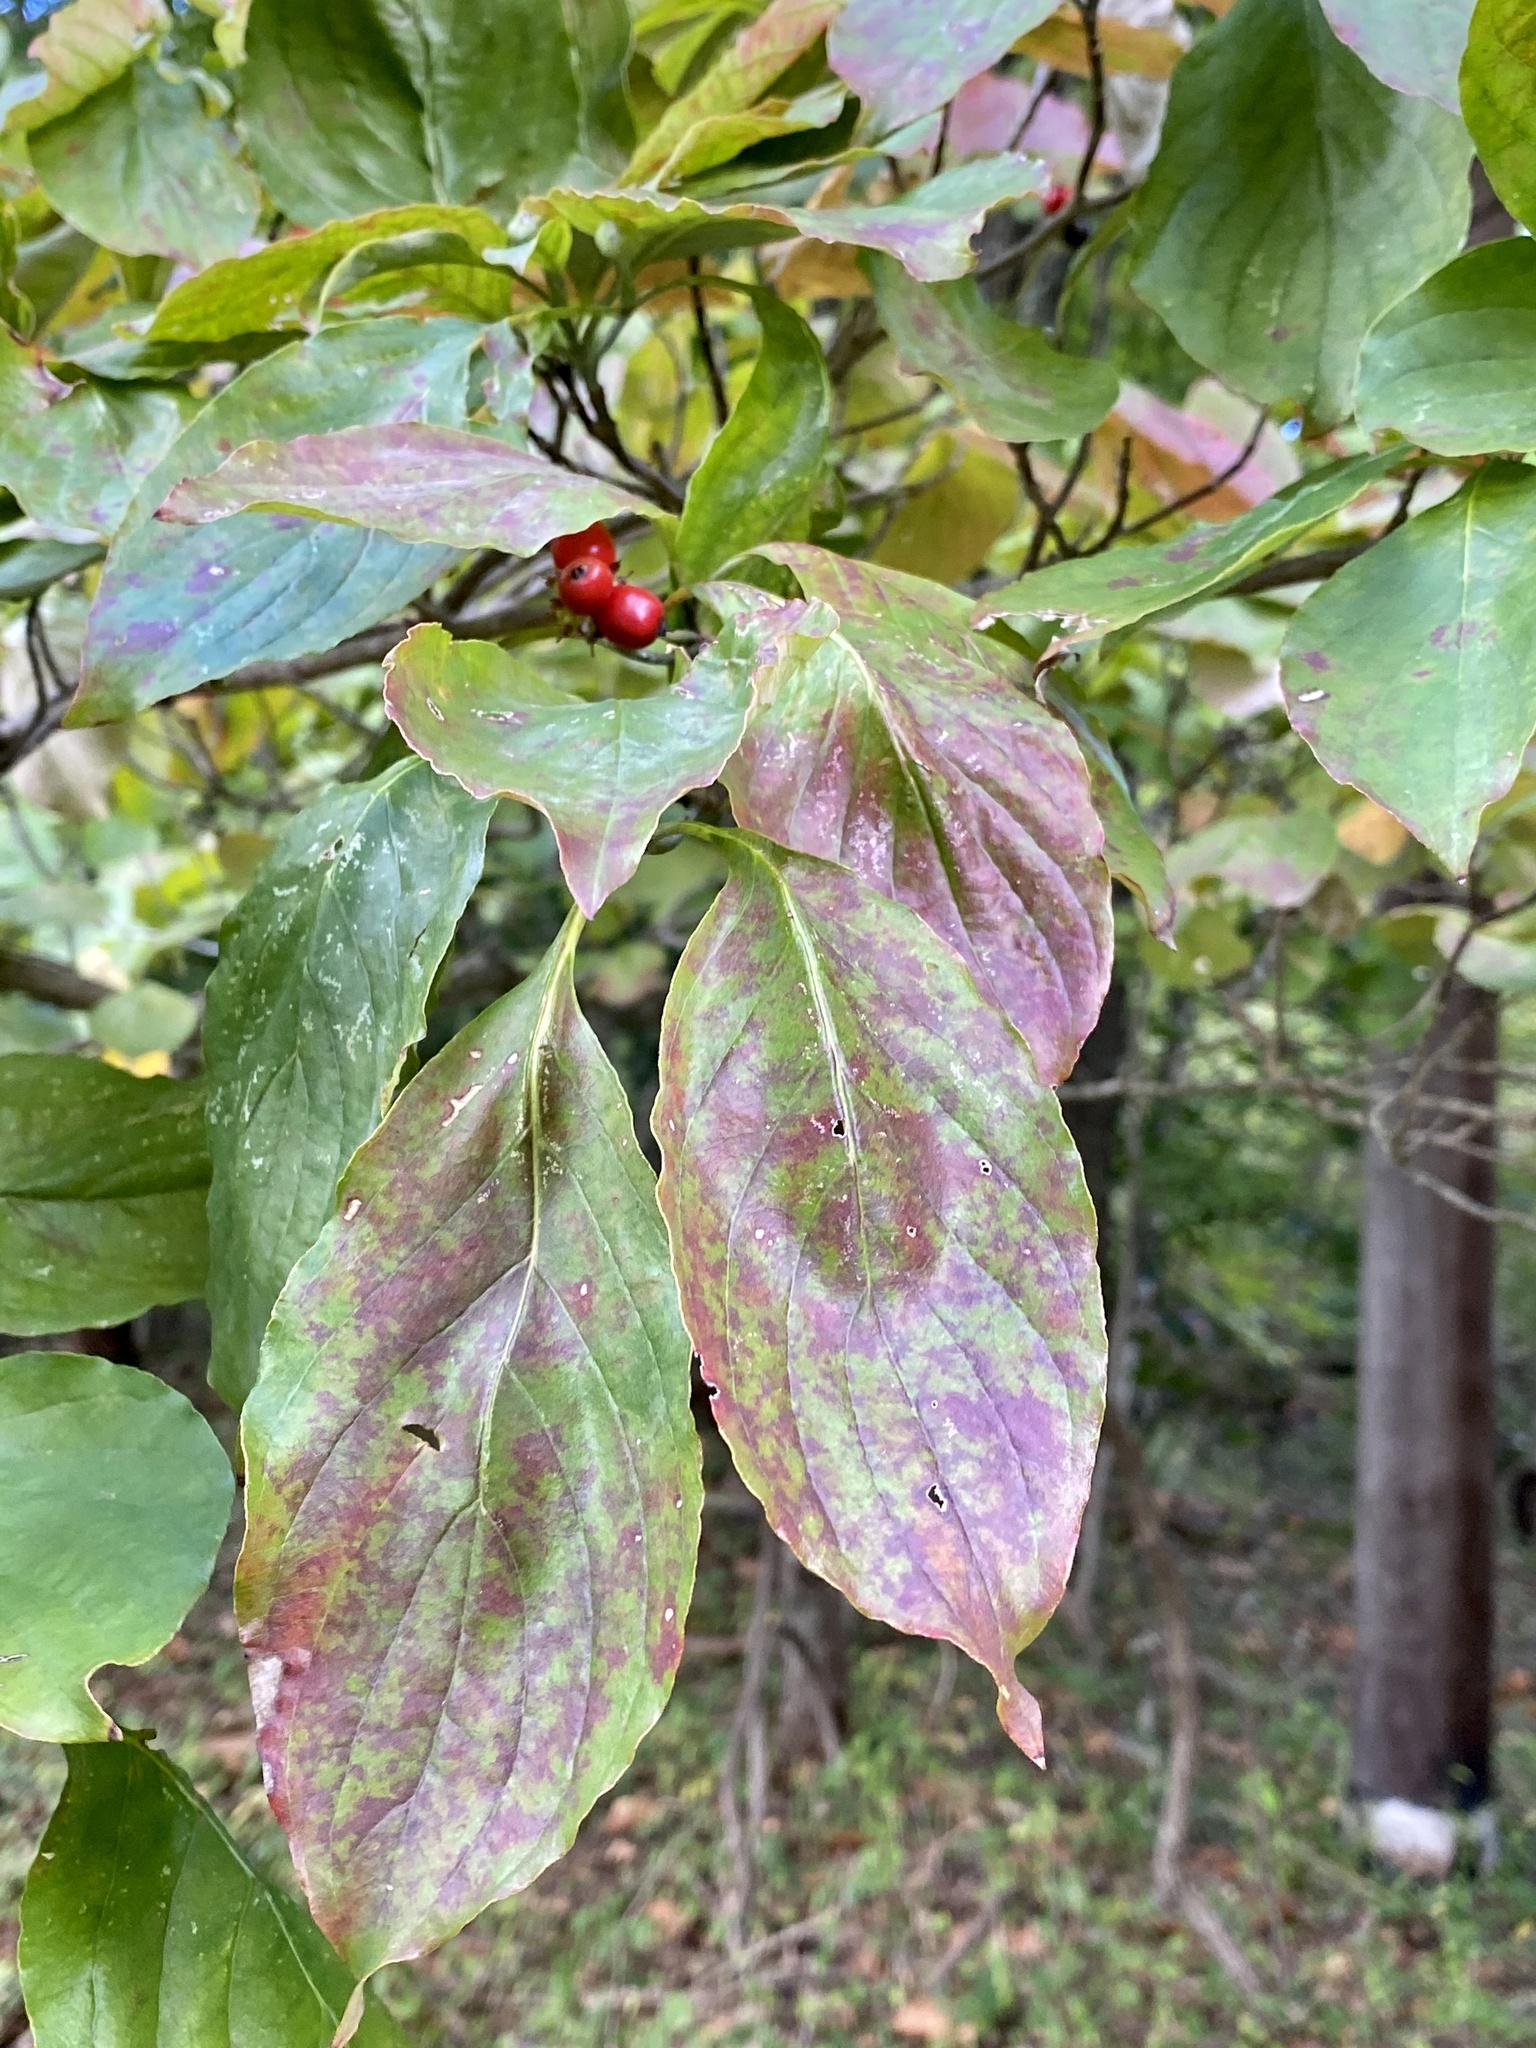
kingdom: Plantae
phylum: Tracheophyta
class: Magnoliopsida
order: Cornales
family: Cornaceae
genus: Cornus
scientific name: Cornus florida
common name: Flowering dogwood
